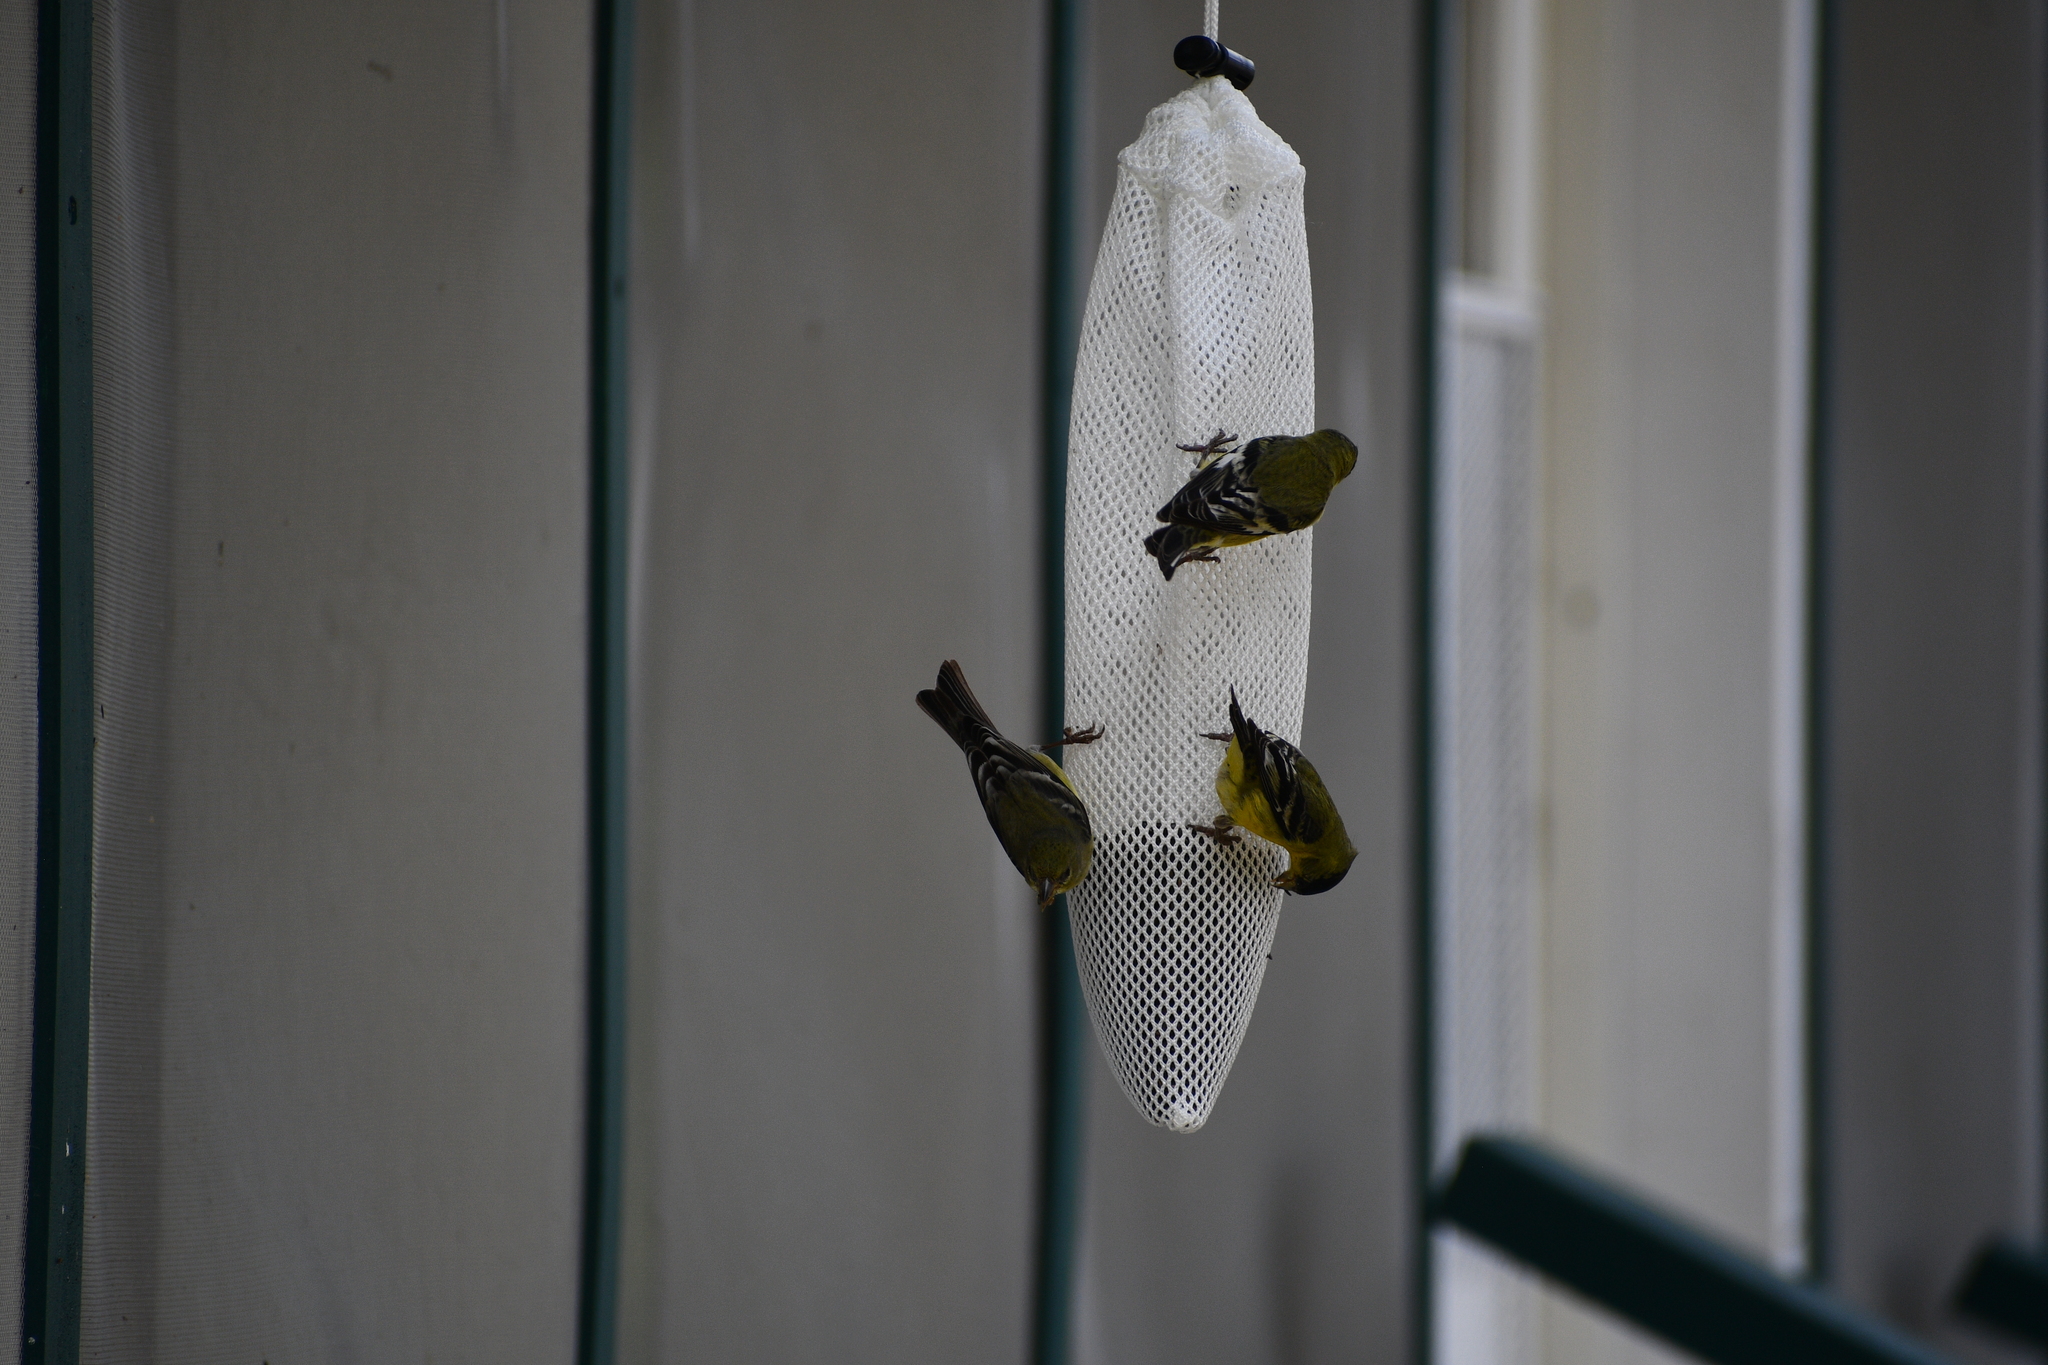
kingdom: Animalia
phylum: Chordata
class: Aves
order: Passeriformes
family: Fringillidae
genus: Spinus
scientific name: Spinus psaltria
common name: Lesser goldfinch
